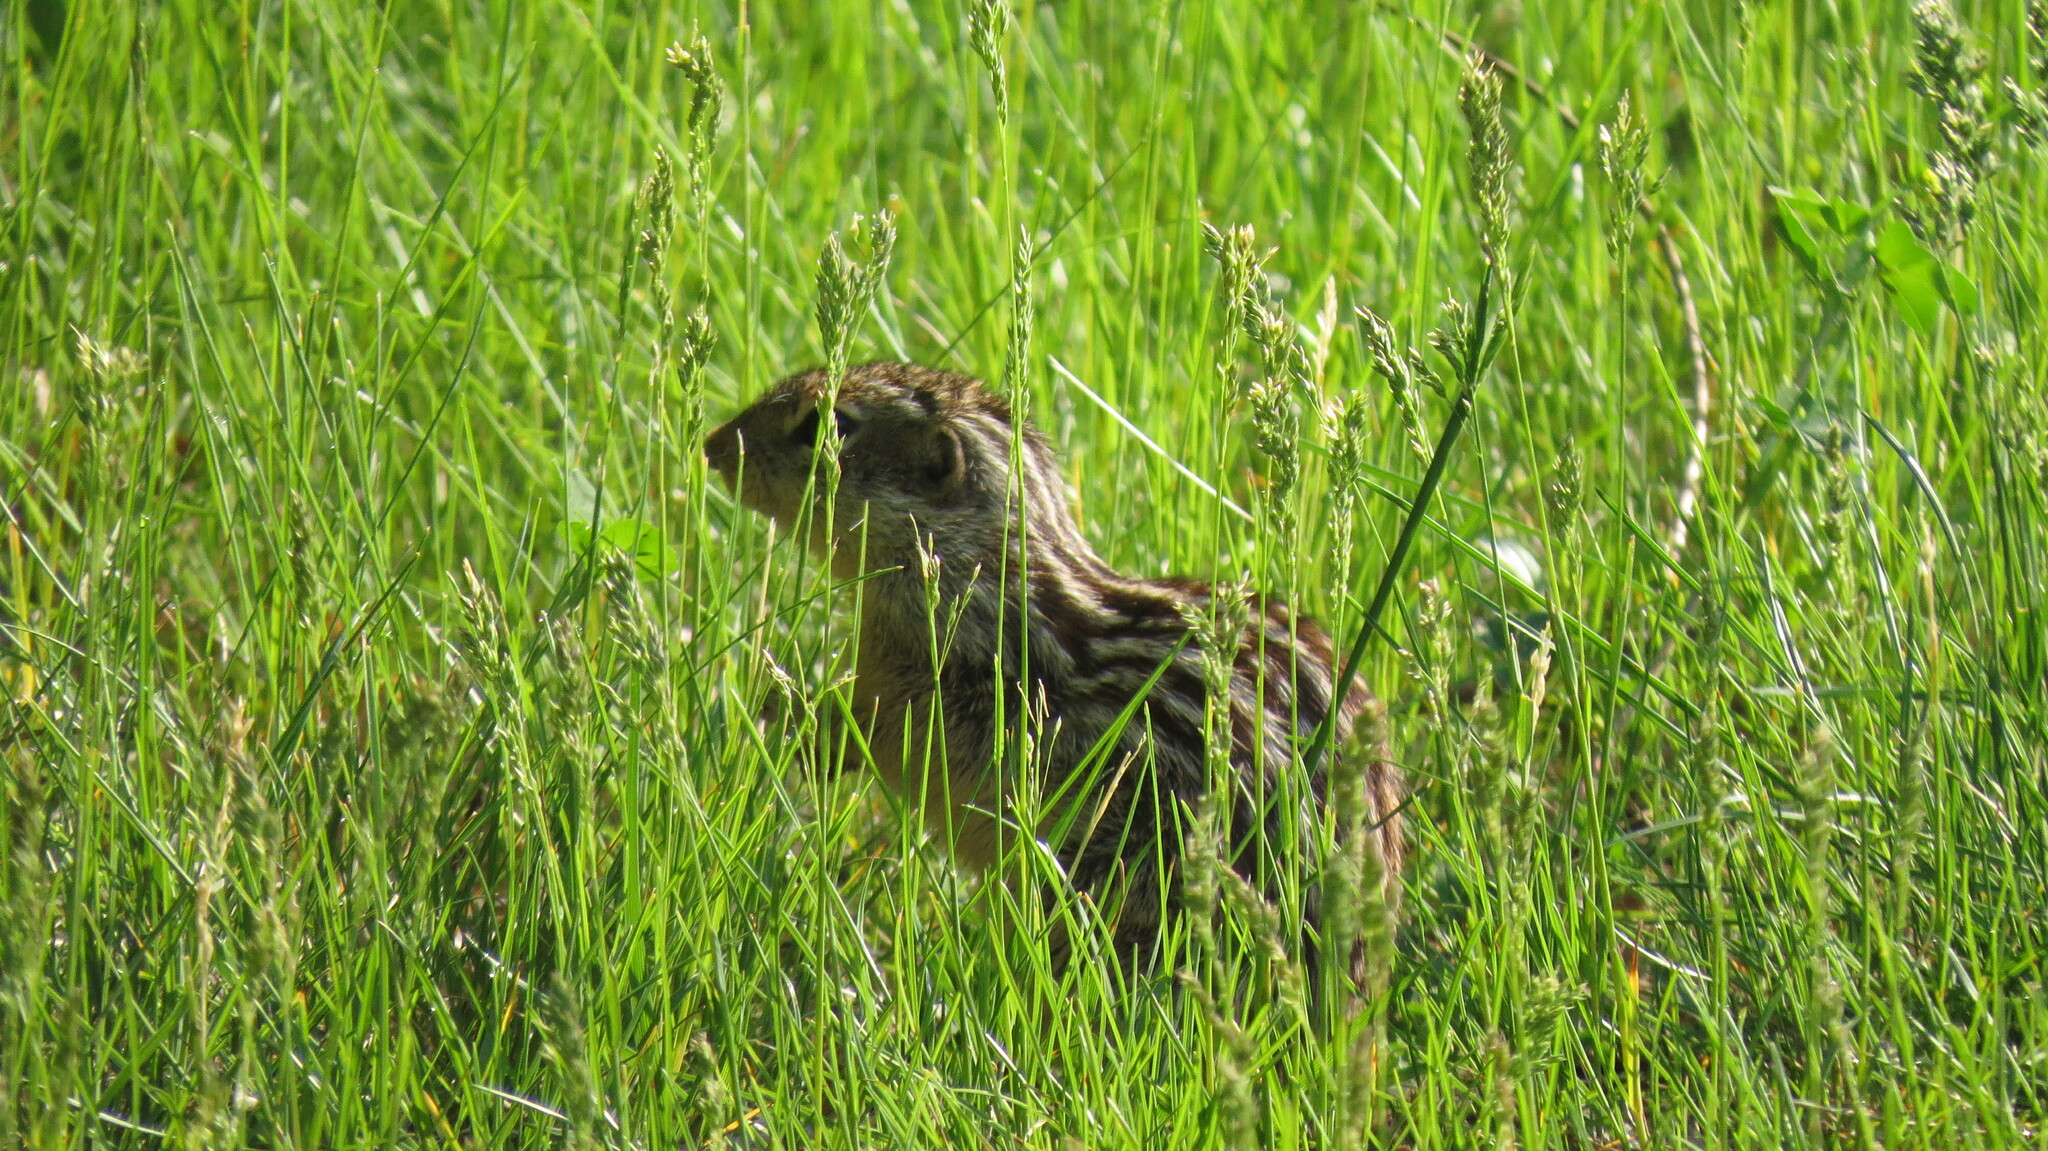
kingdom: Animalia
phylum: Chordata
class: Mammalia
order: Rodentia
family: Sciuridae
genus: Ictidomys
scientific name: Ictidomys tridecemlineatus
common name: Thirteen-lined ground squirrel
